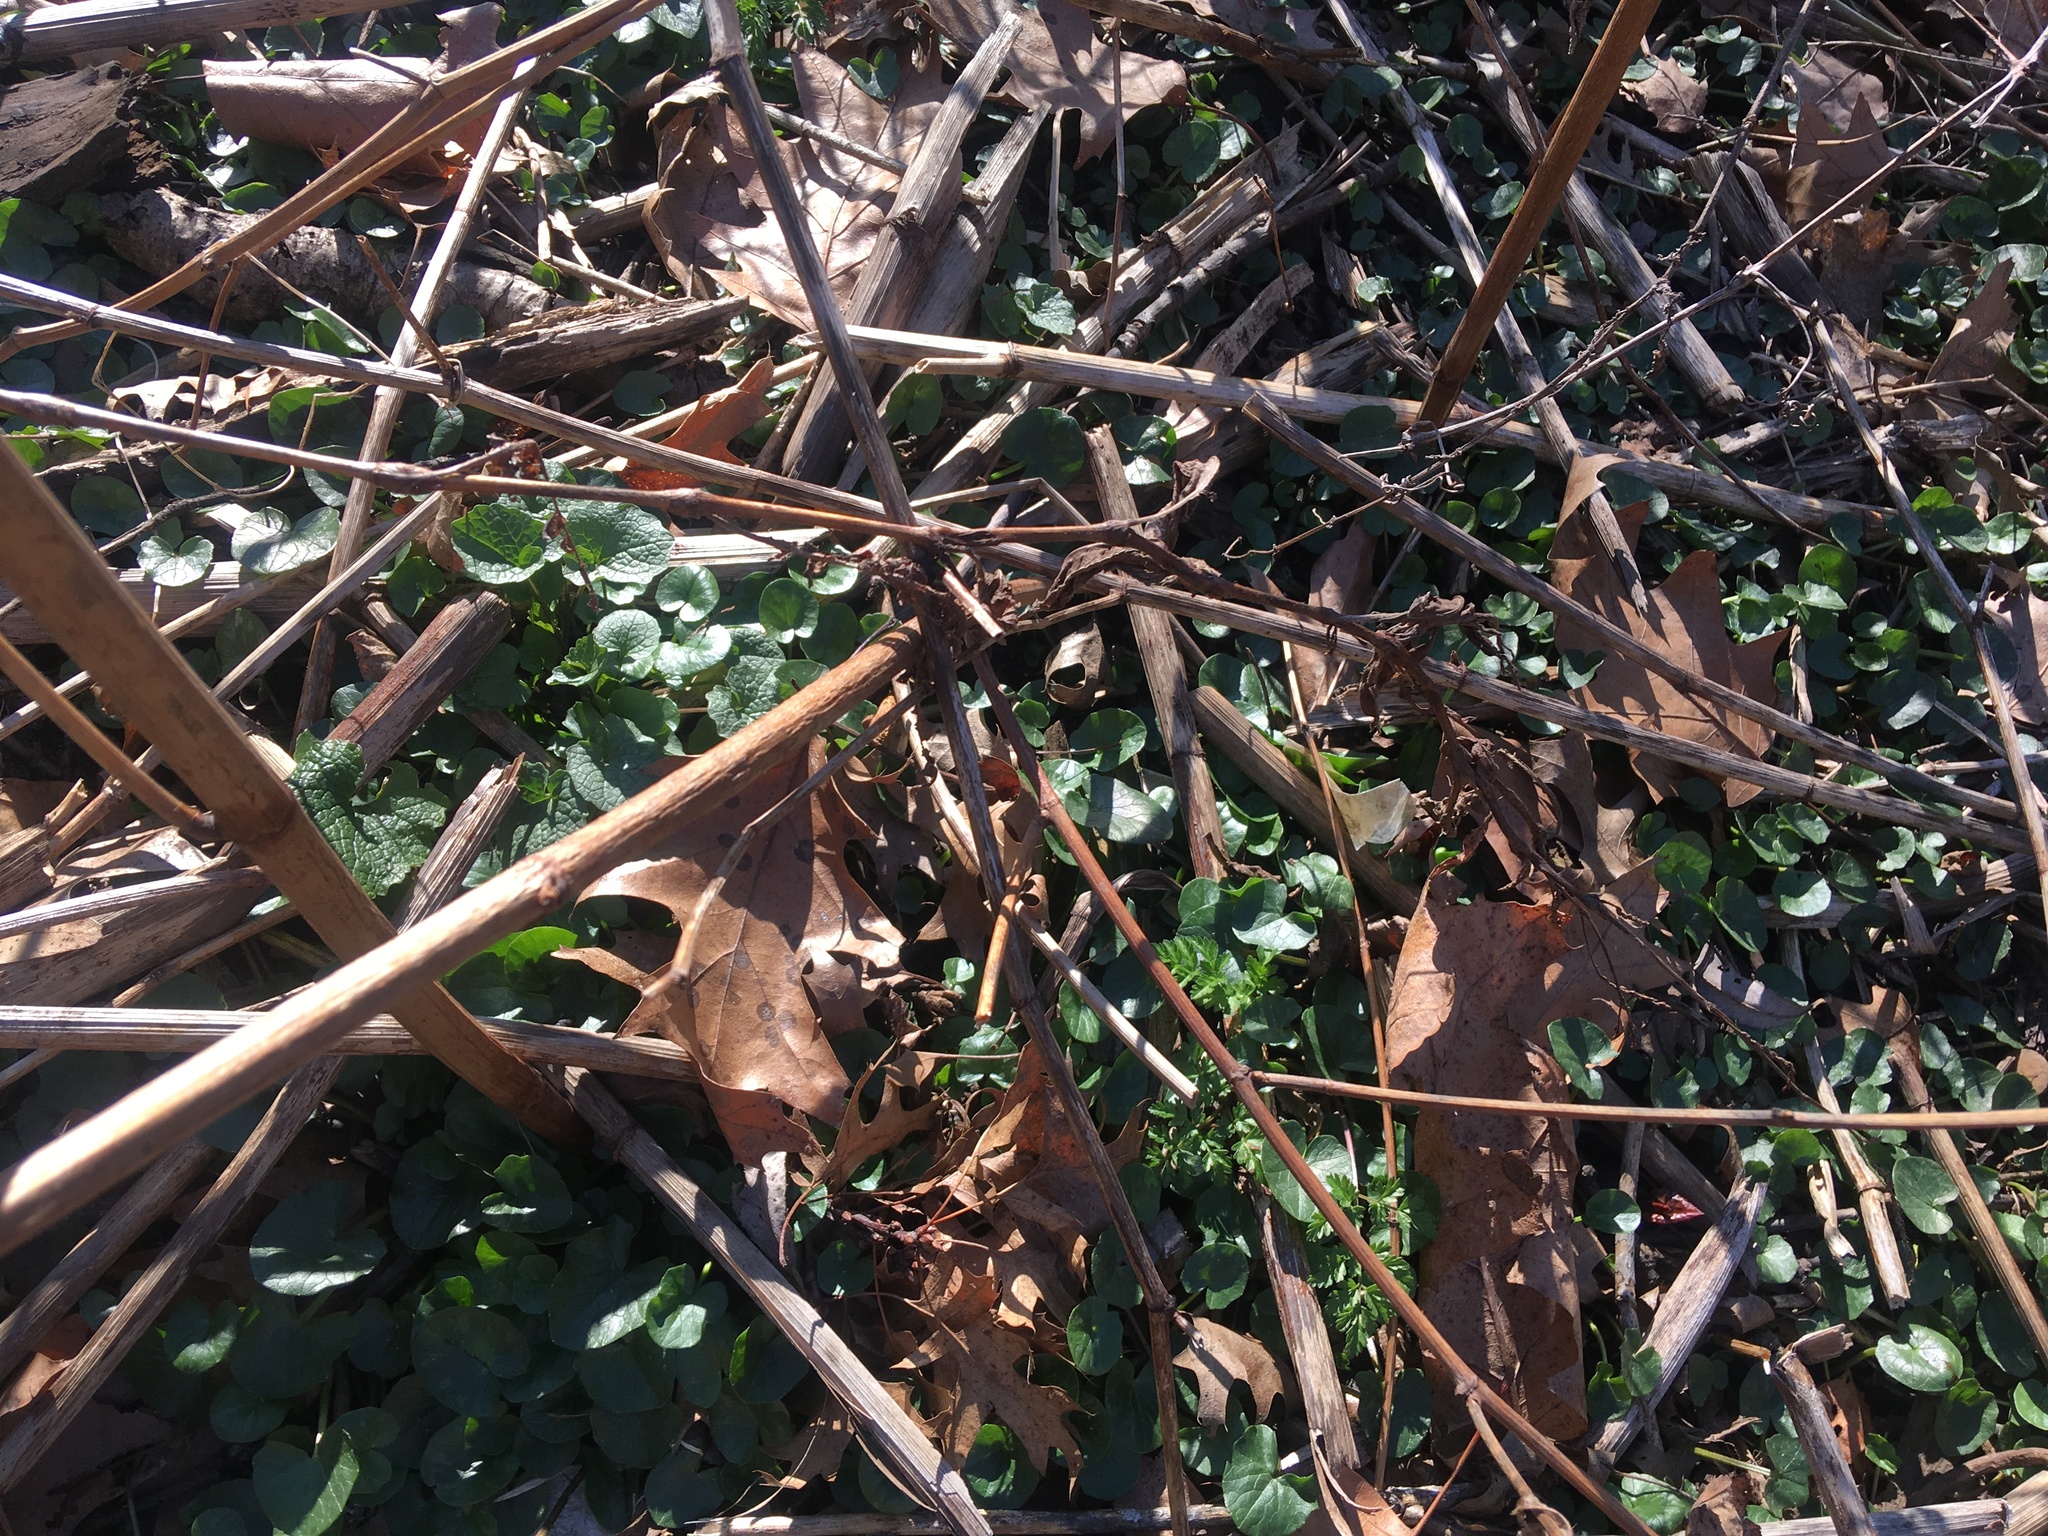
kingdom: Plantae
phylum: Tracheophyta
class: Magnoliopsida
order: Ranunculales
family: Ranunculaceae
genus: Ficaria
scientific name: Ficaria verna
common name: Lesser celandine
